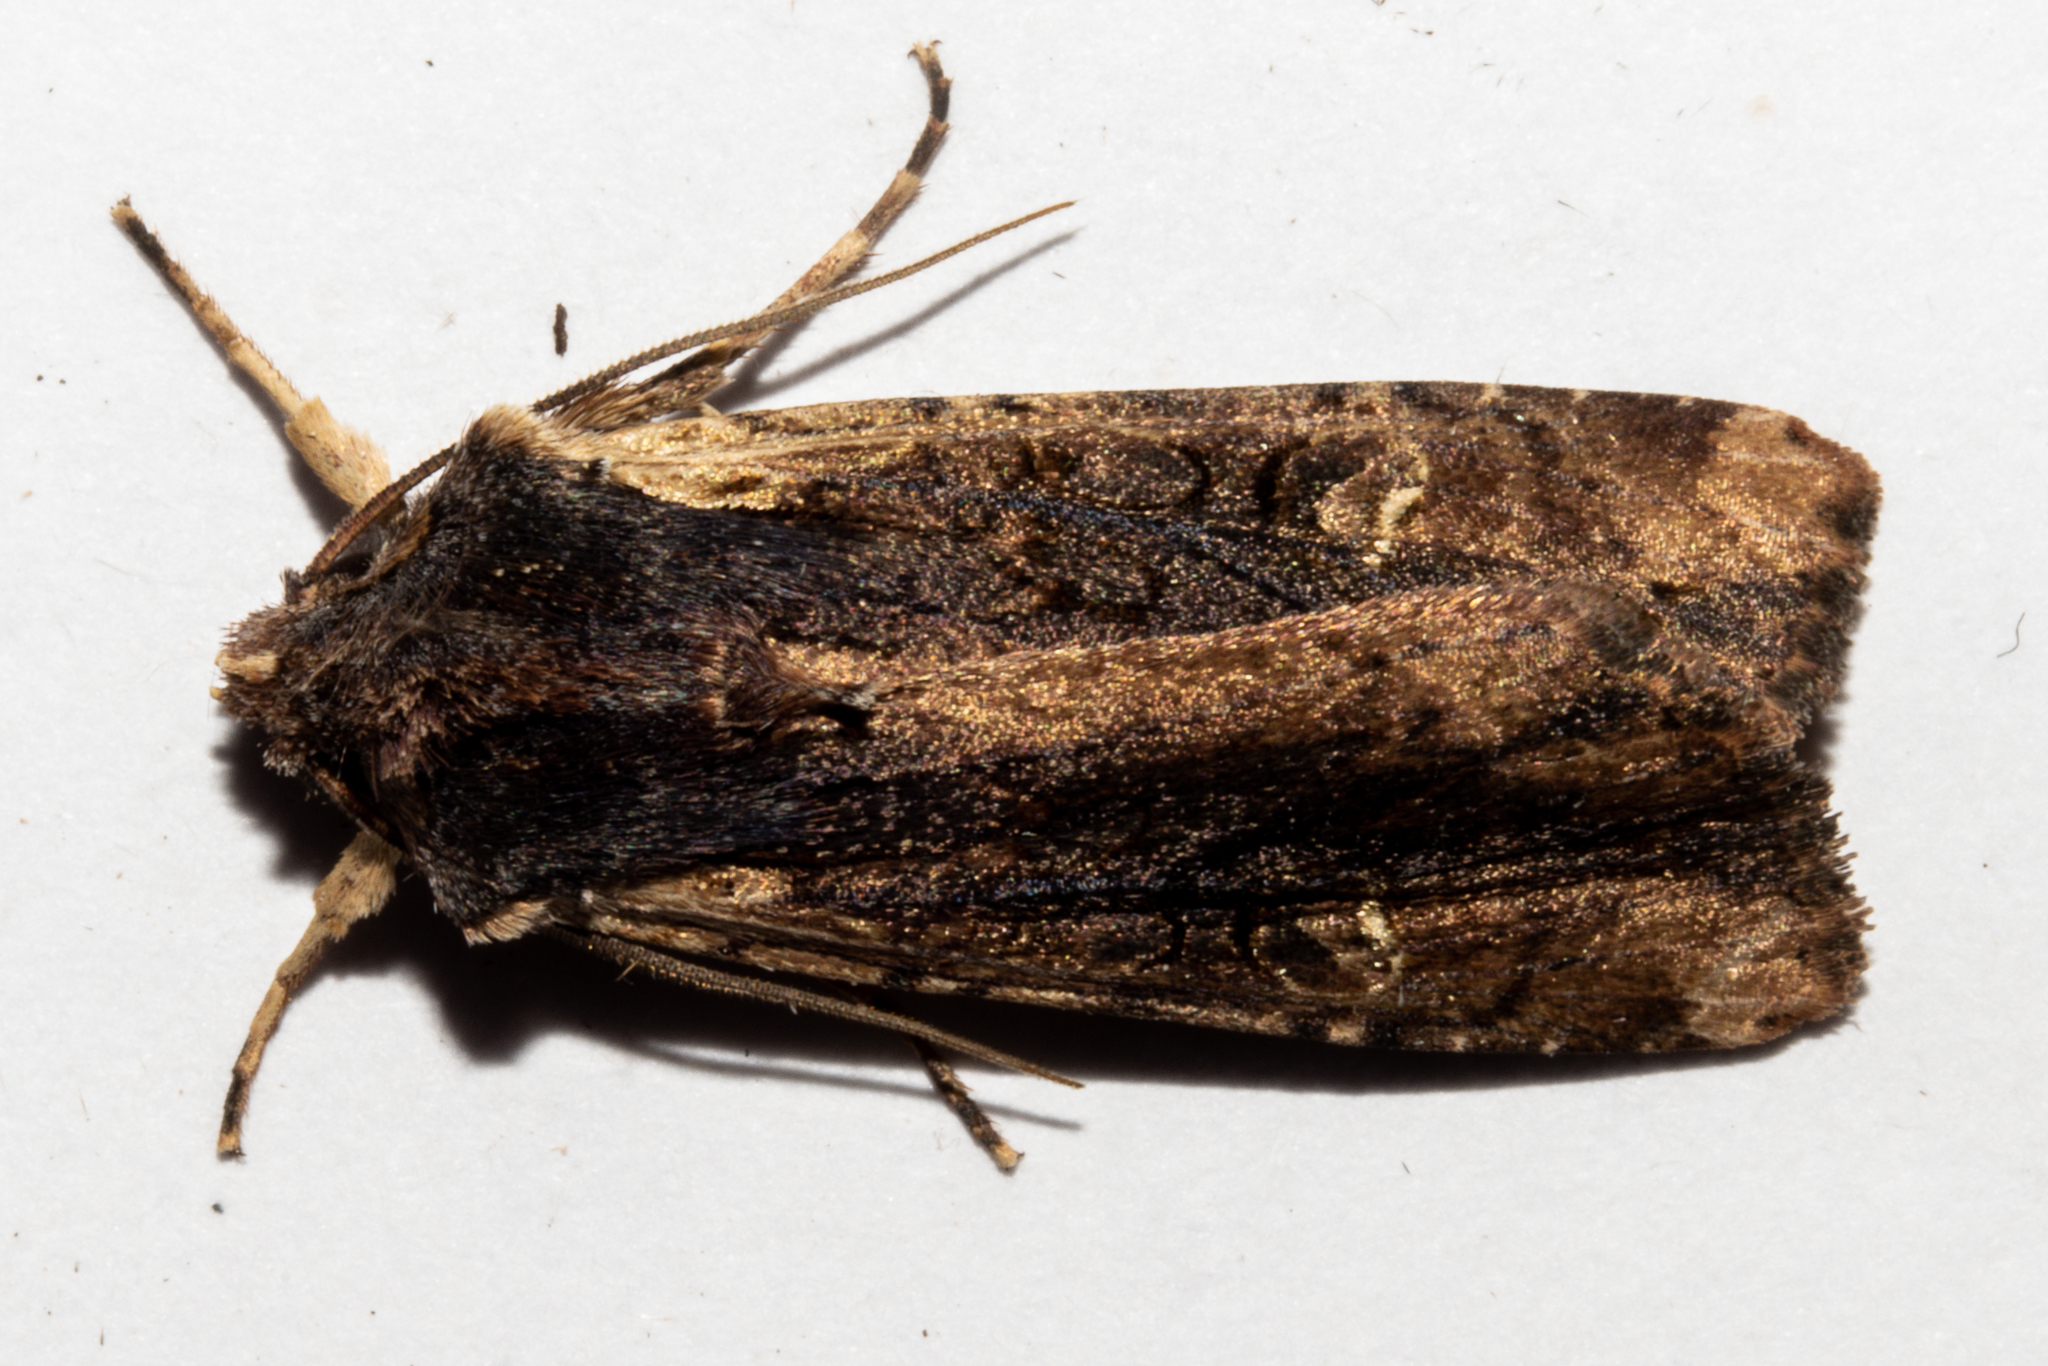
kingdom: Animalia
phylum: Arthropoda
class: Insecta
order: Lepidoptera
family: Noctuidae
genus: Ichneutica
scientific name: Ichneutica omoplaca
